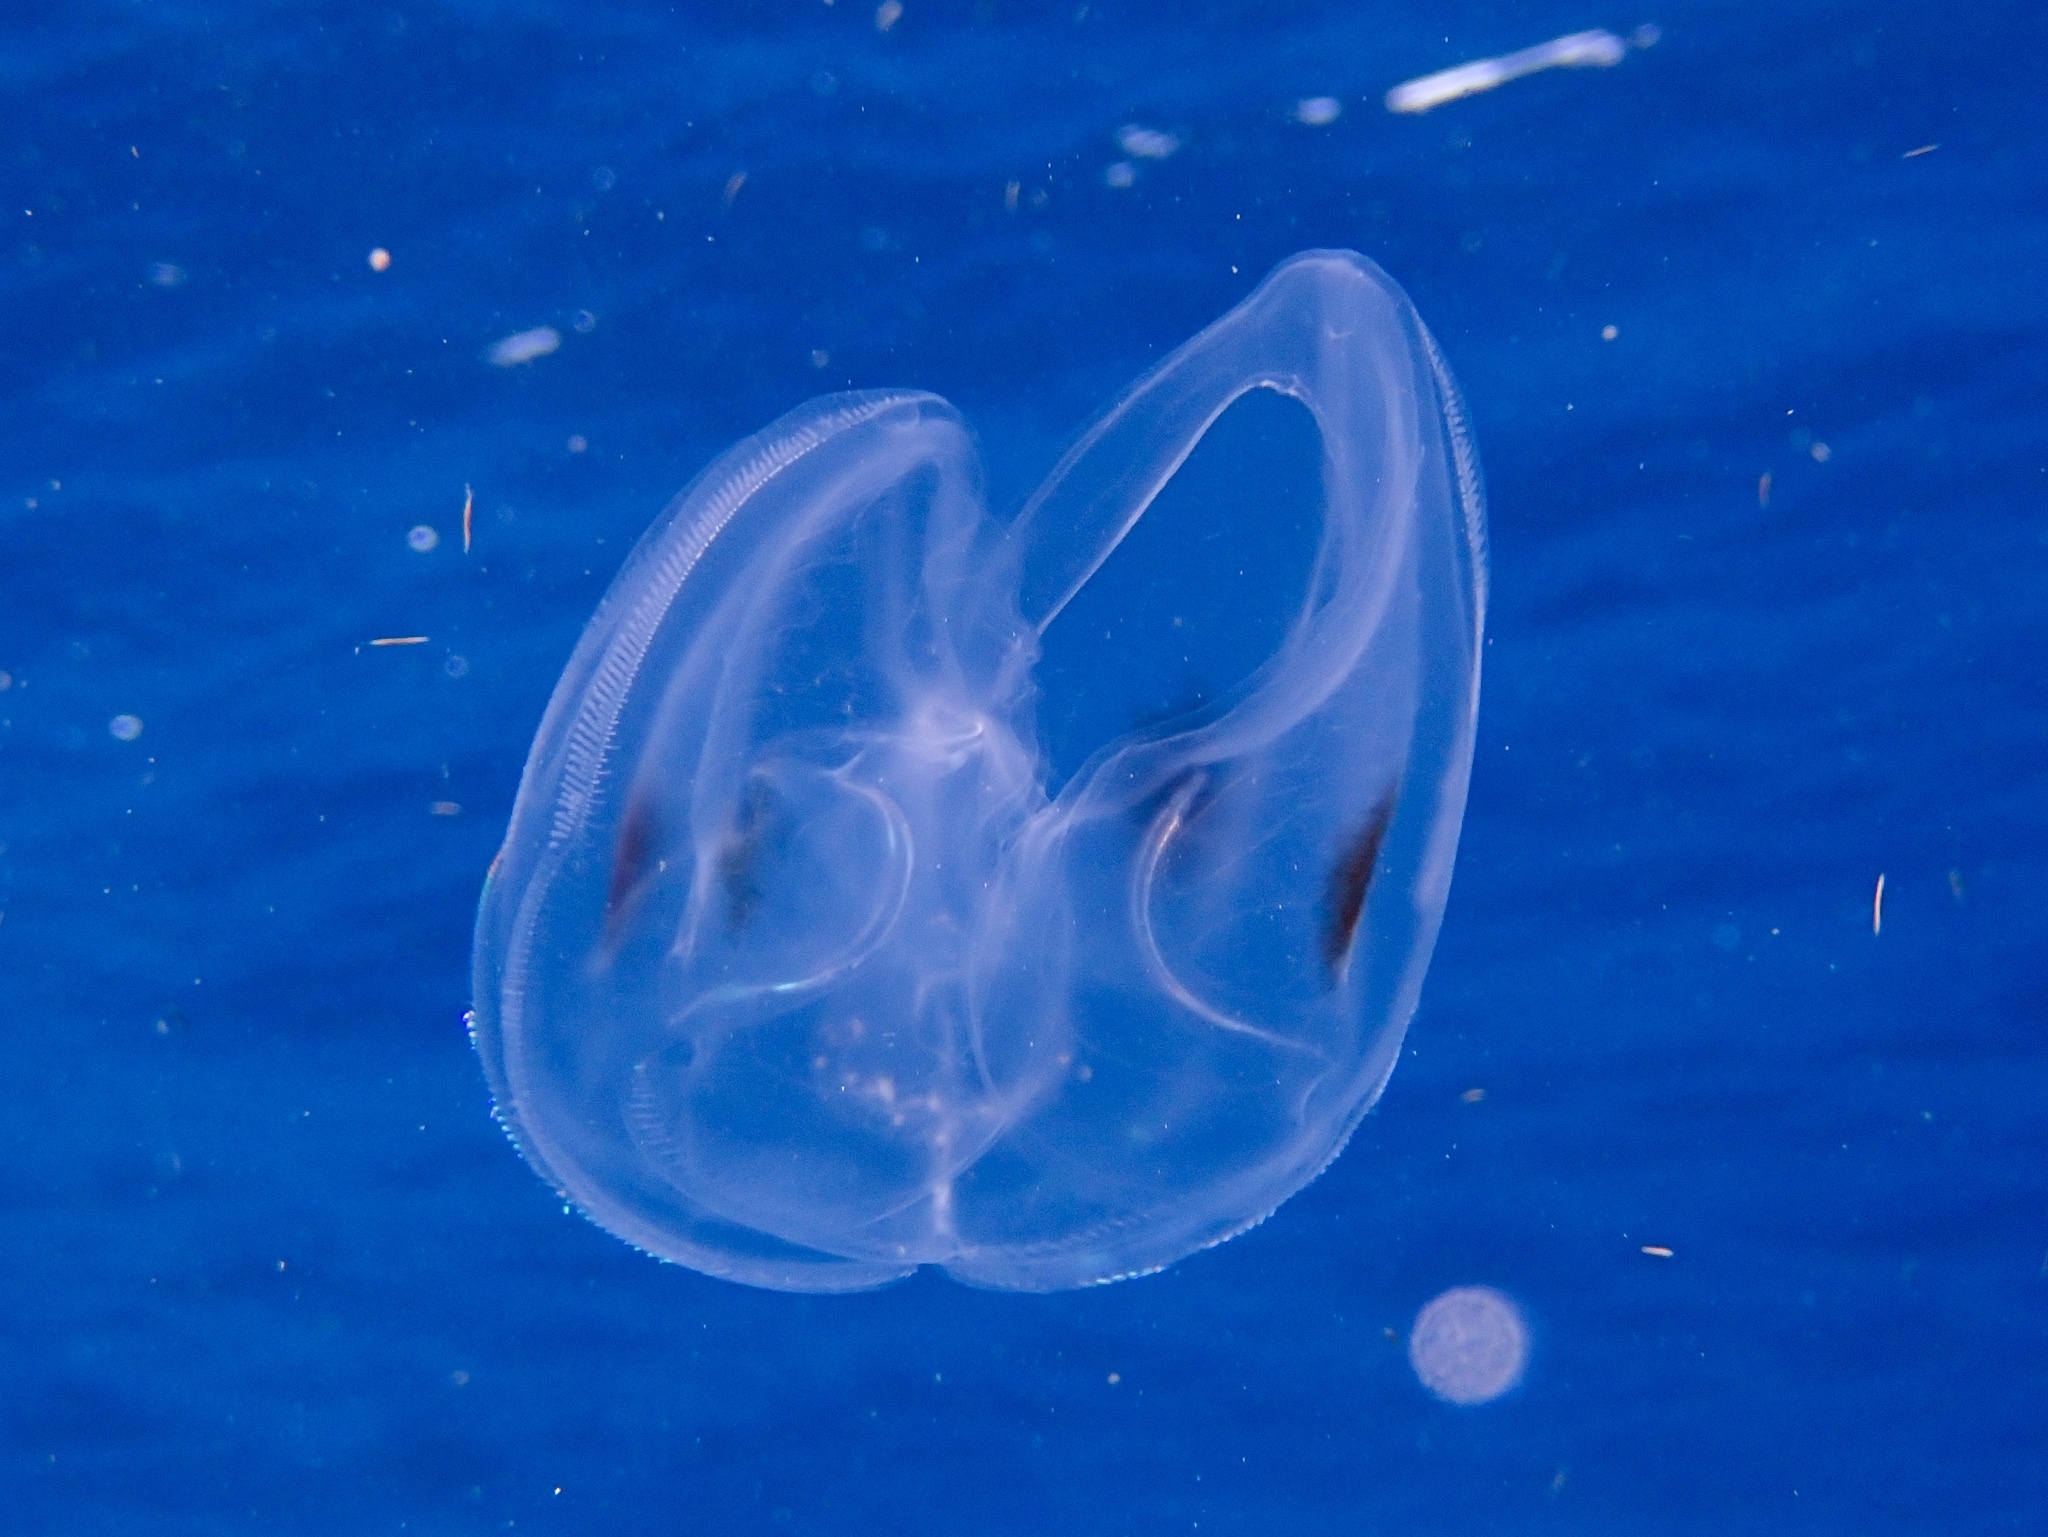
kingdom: Animalia
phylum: Ctenophora
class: Tentaculata
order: Lobata
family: Ocyropsidae
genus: Ocyropsis
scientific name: Ocyropsis maculata
